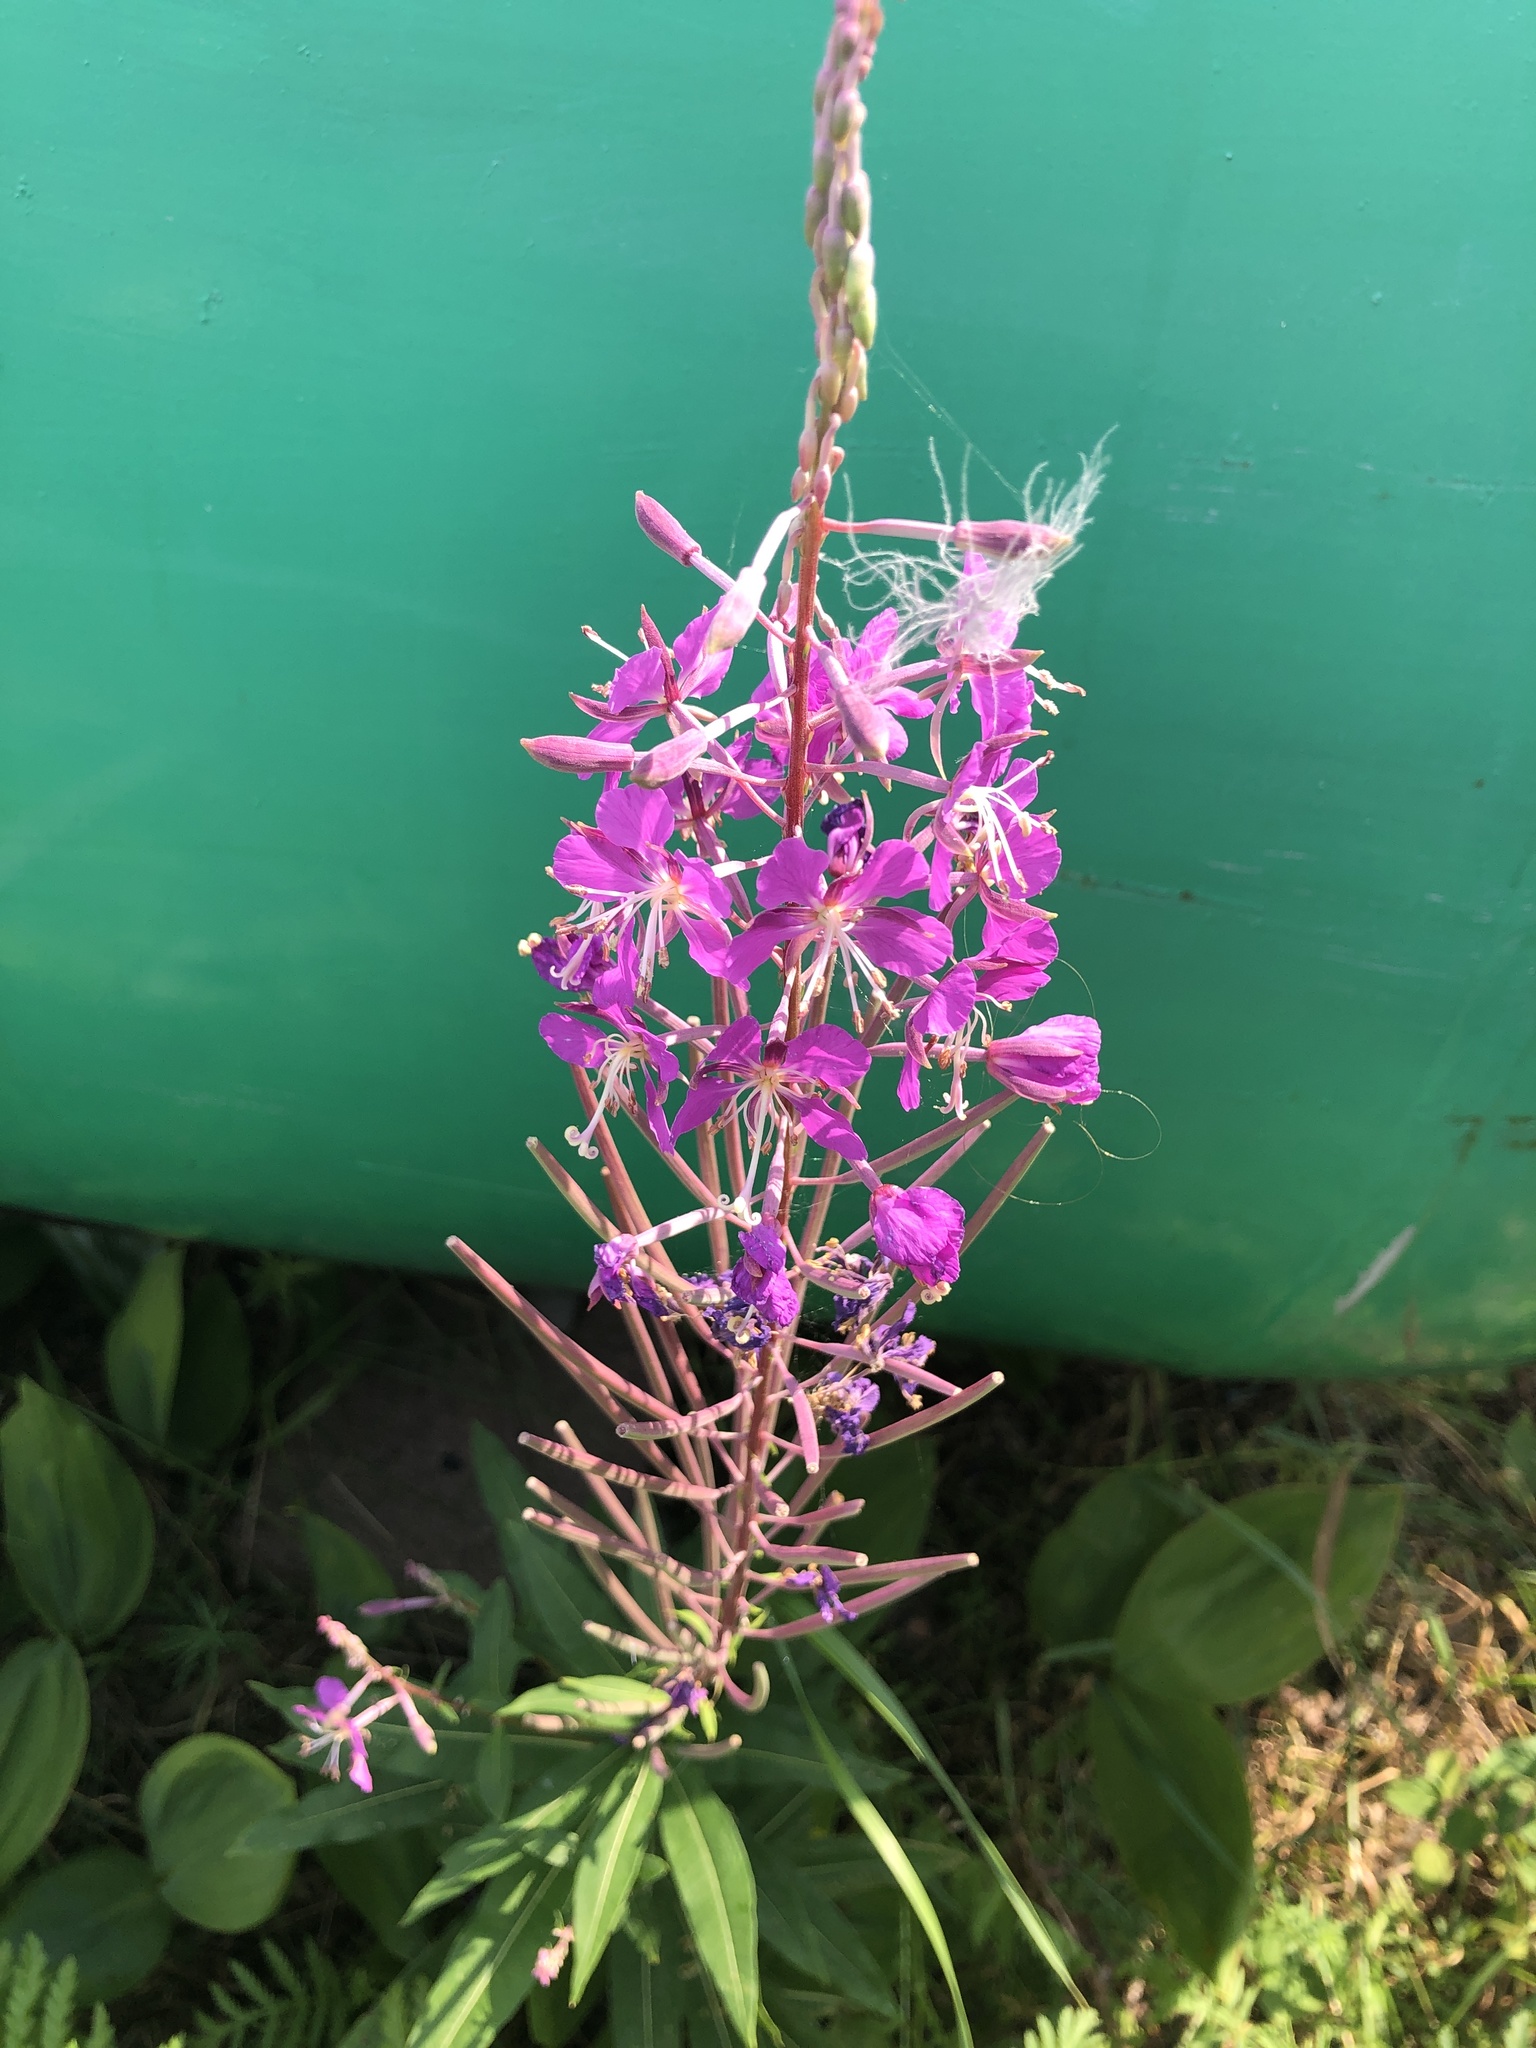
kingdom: Plantae
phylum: Tracheophyta
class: Magnoliopsida
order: Myrtales
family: Onagraceae
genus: Chamaenerion
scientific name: Chamaenerion angustifolium
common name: Fireweed
